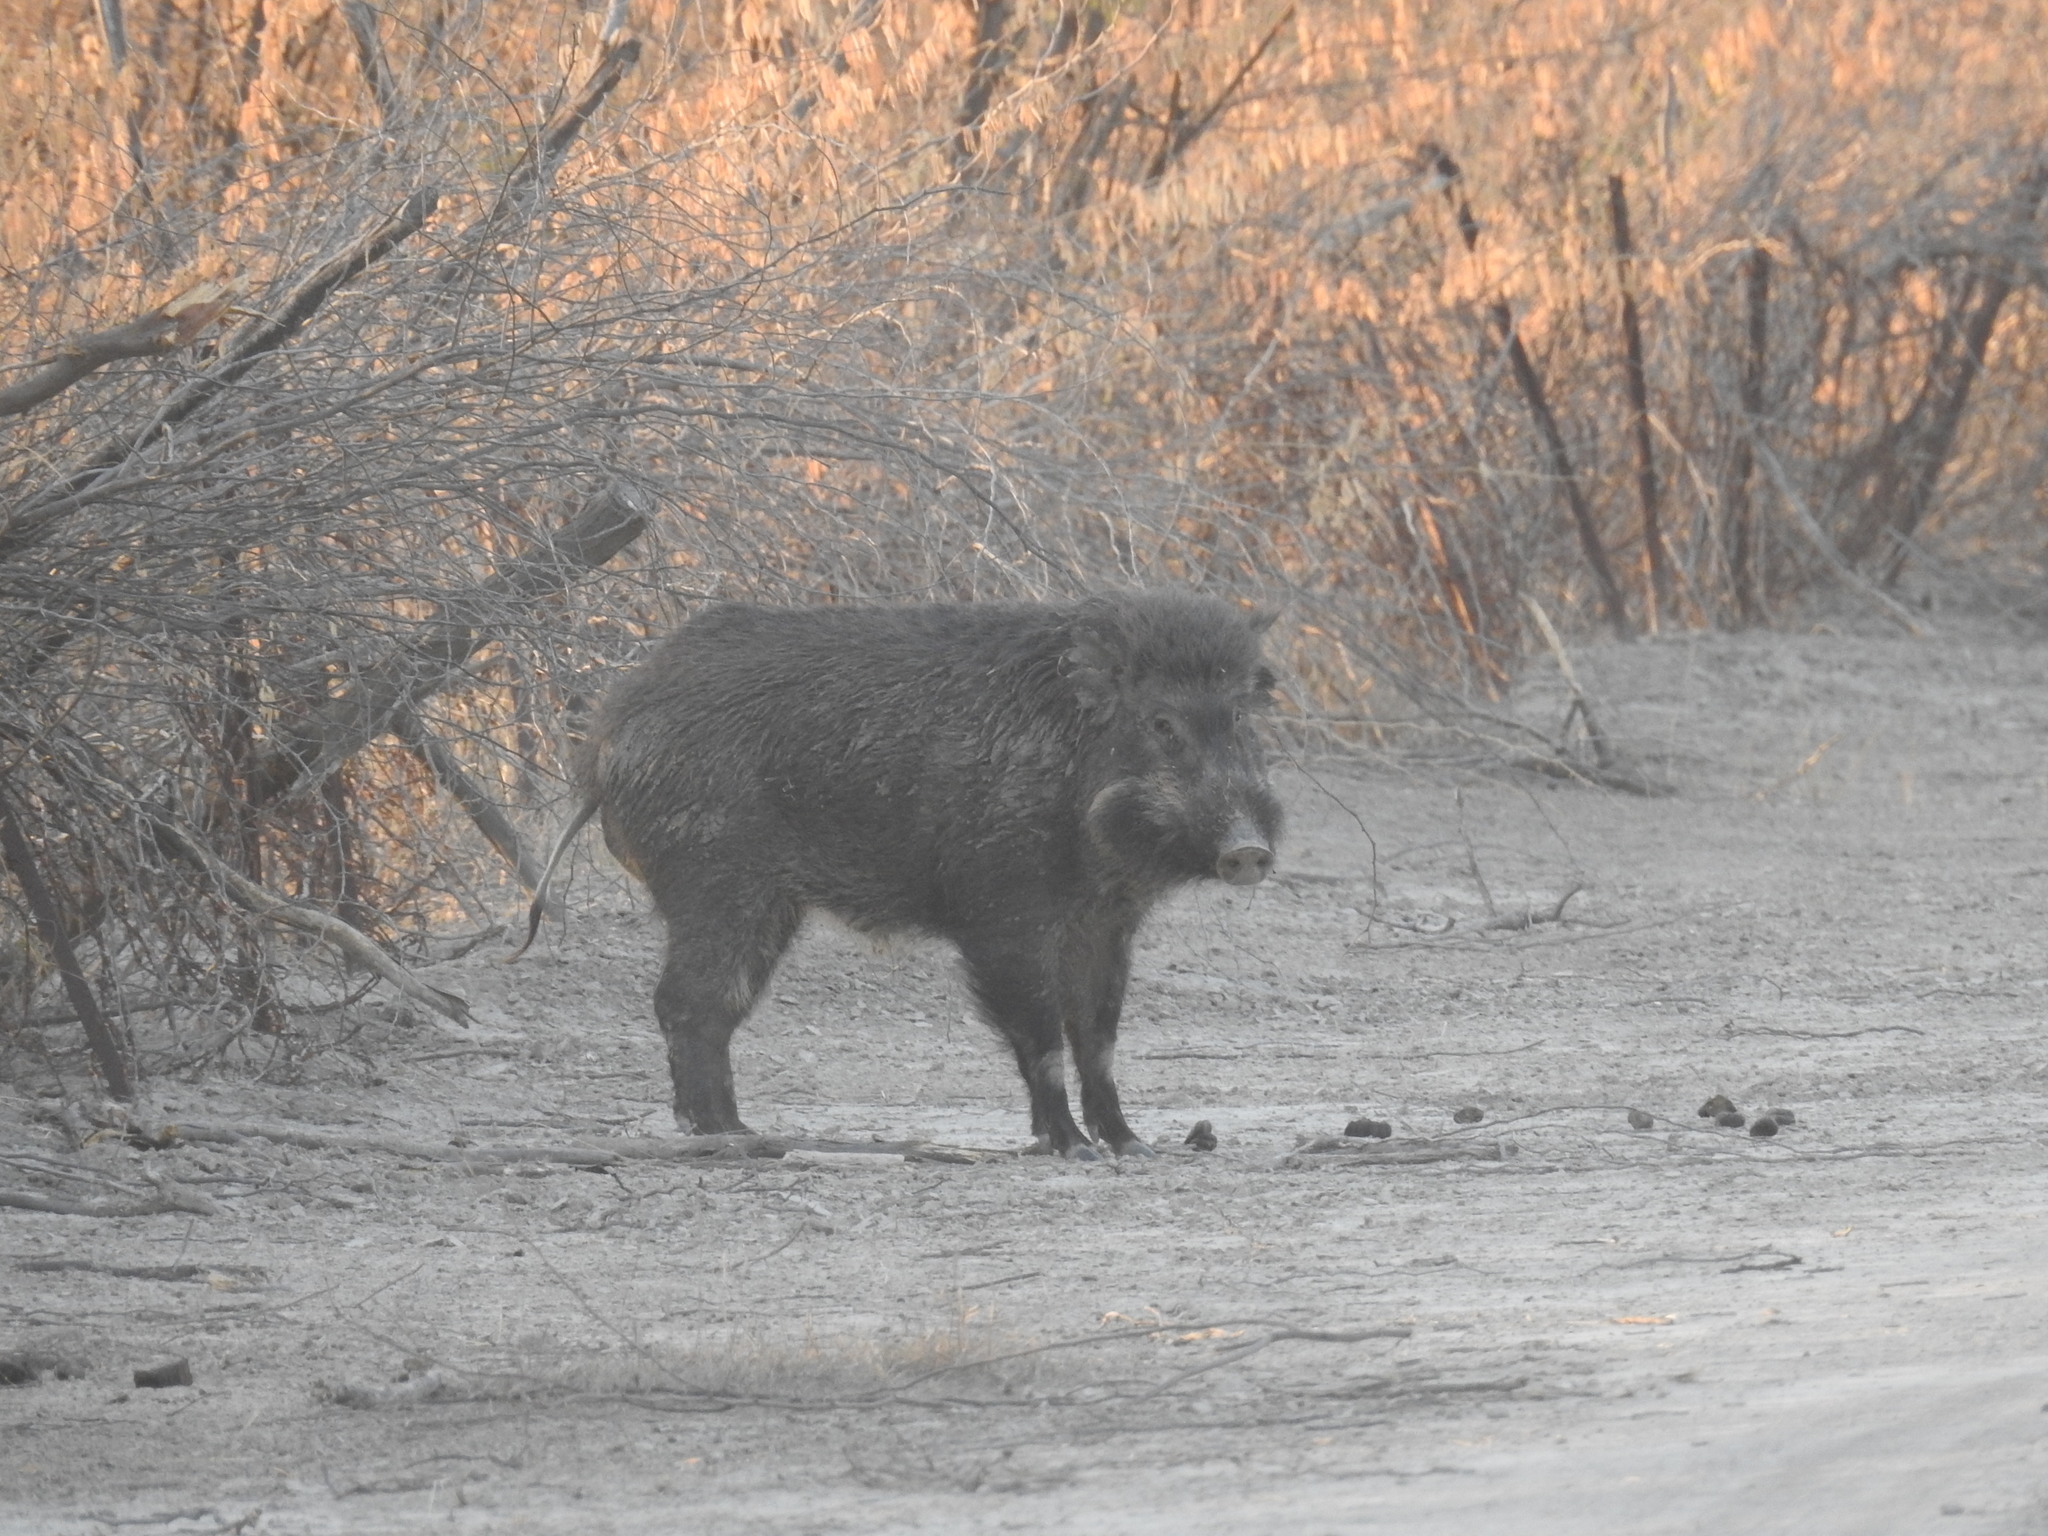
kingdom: Animalia
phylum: Chordata
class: Mammalia
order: Artiodactyla
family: Suidae
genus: Sus
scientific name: Sus scrofa
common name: Wild boar
